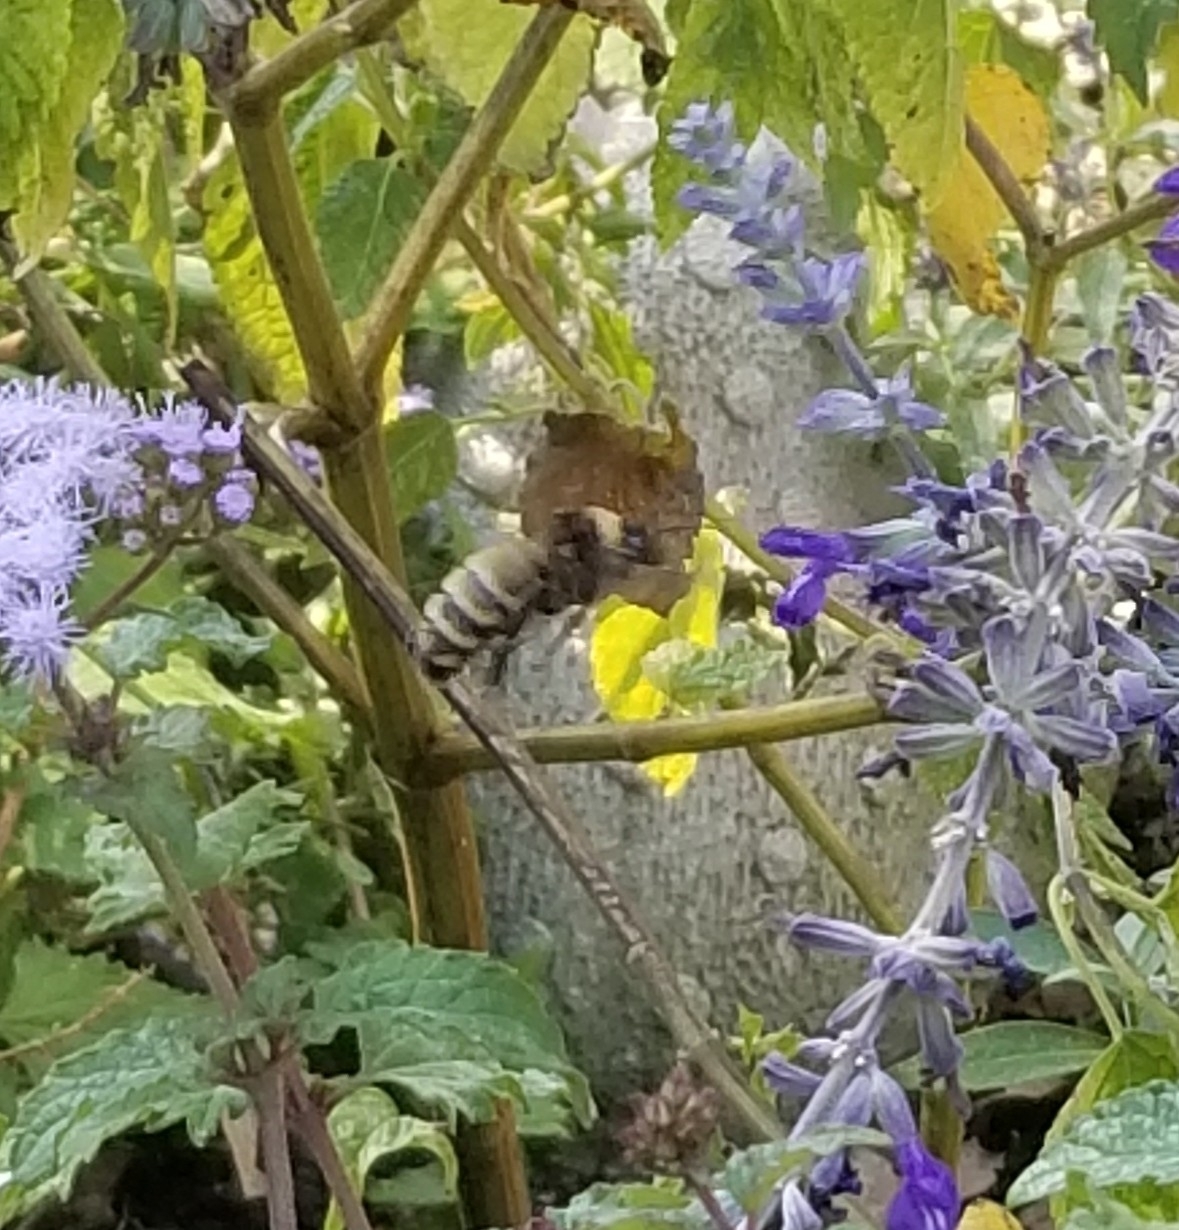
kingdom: Animalia
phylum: Arthropoda
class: Insecta
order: Hymenoptera
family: Apidae
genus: Bombus
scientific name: Bombus pensylvanicus
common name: Bumble bee
